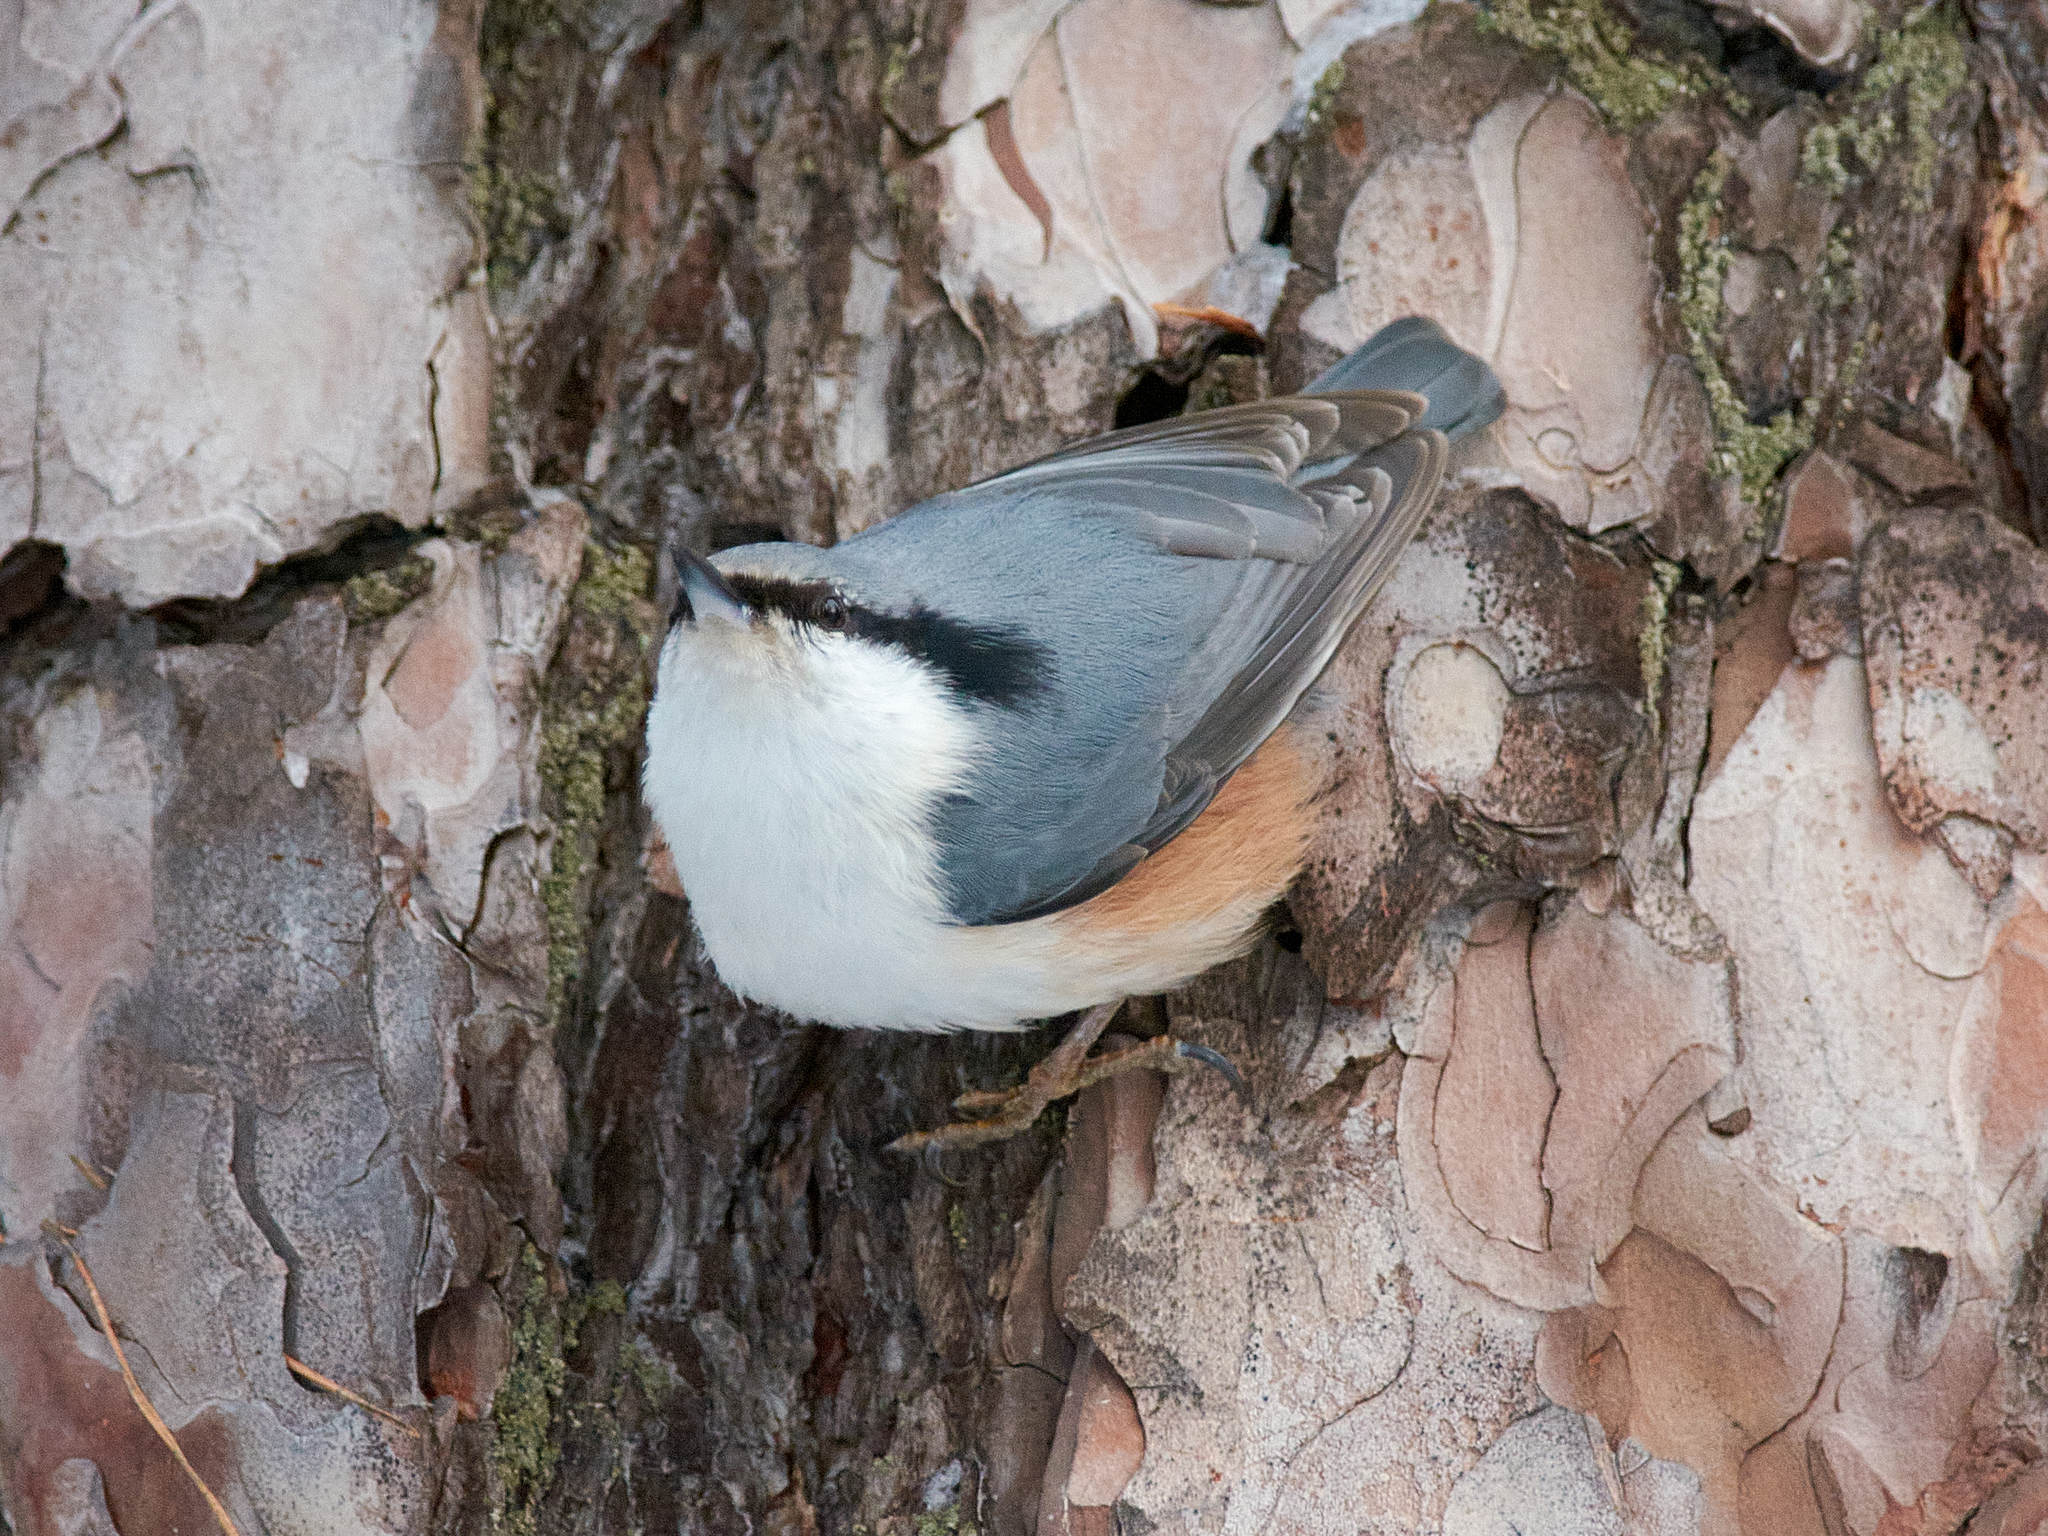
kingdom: Animalia
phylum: Chordata
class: Aves
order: Passeriformes
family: Sittidae
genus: Sitta
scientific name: Sitta europaea
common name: Eurasian nuthatch
